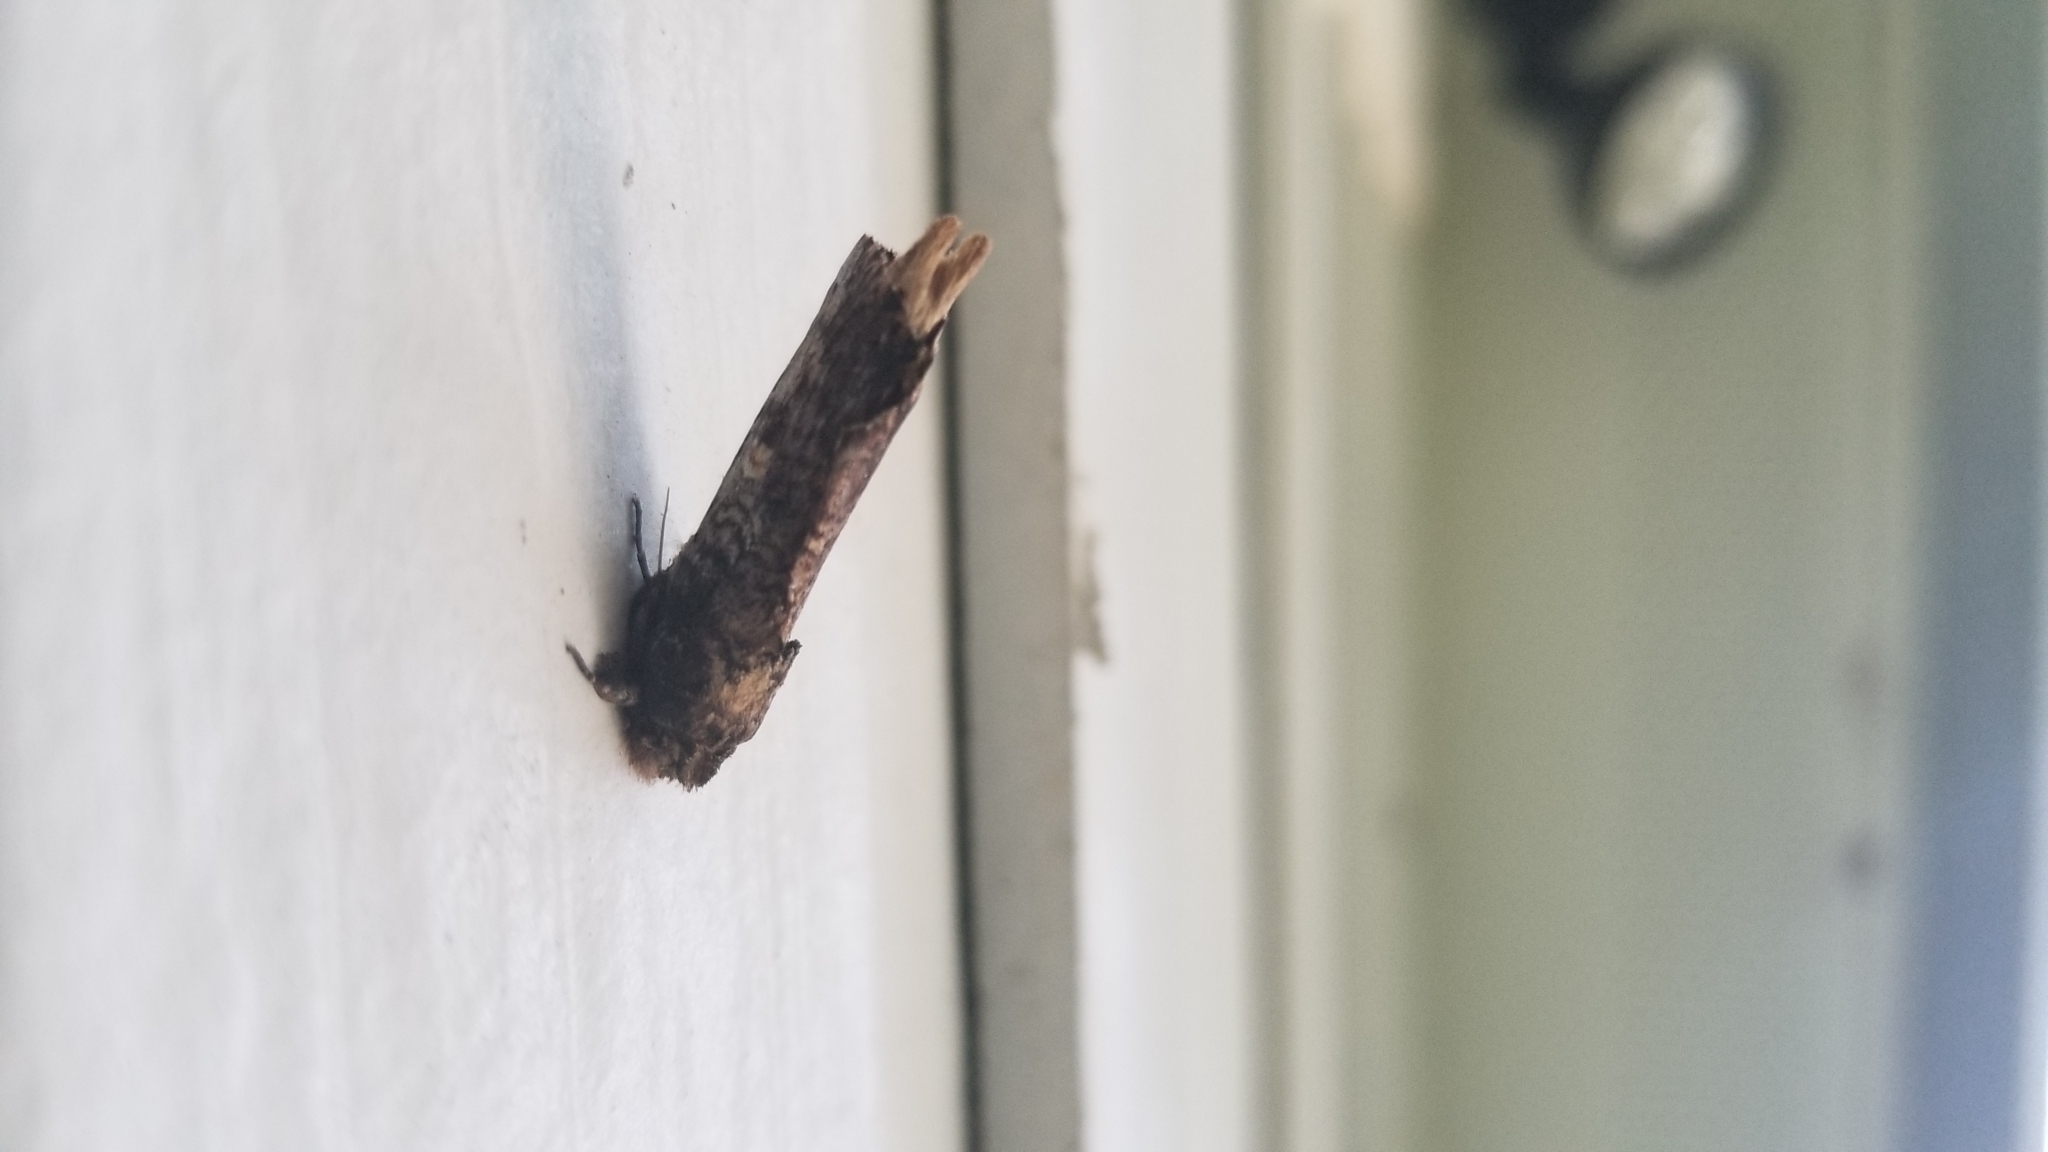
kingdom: Animalia
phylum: Arthropoda
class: Insecta
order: Lepidoptera
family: Notodontidae
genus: Schizura
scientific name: Schizura ipomaeae
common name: Morning-glory prominent
